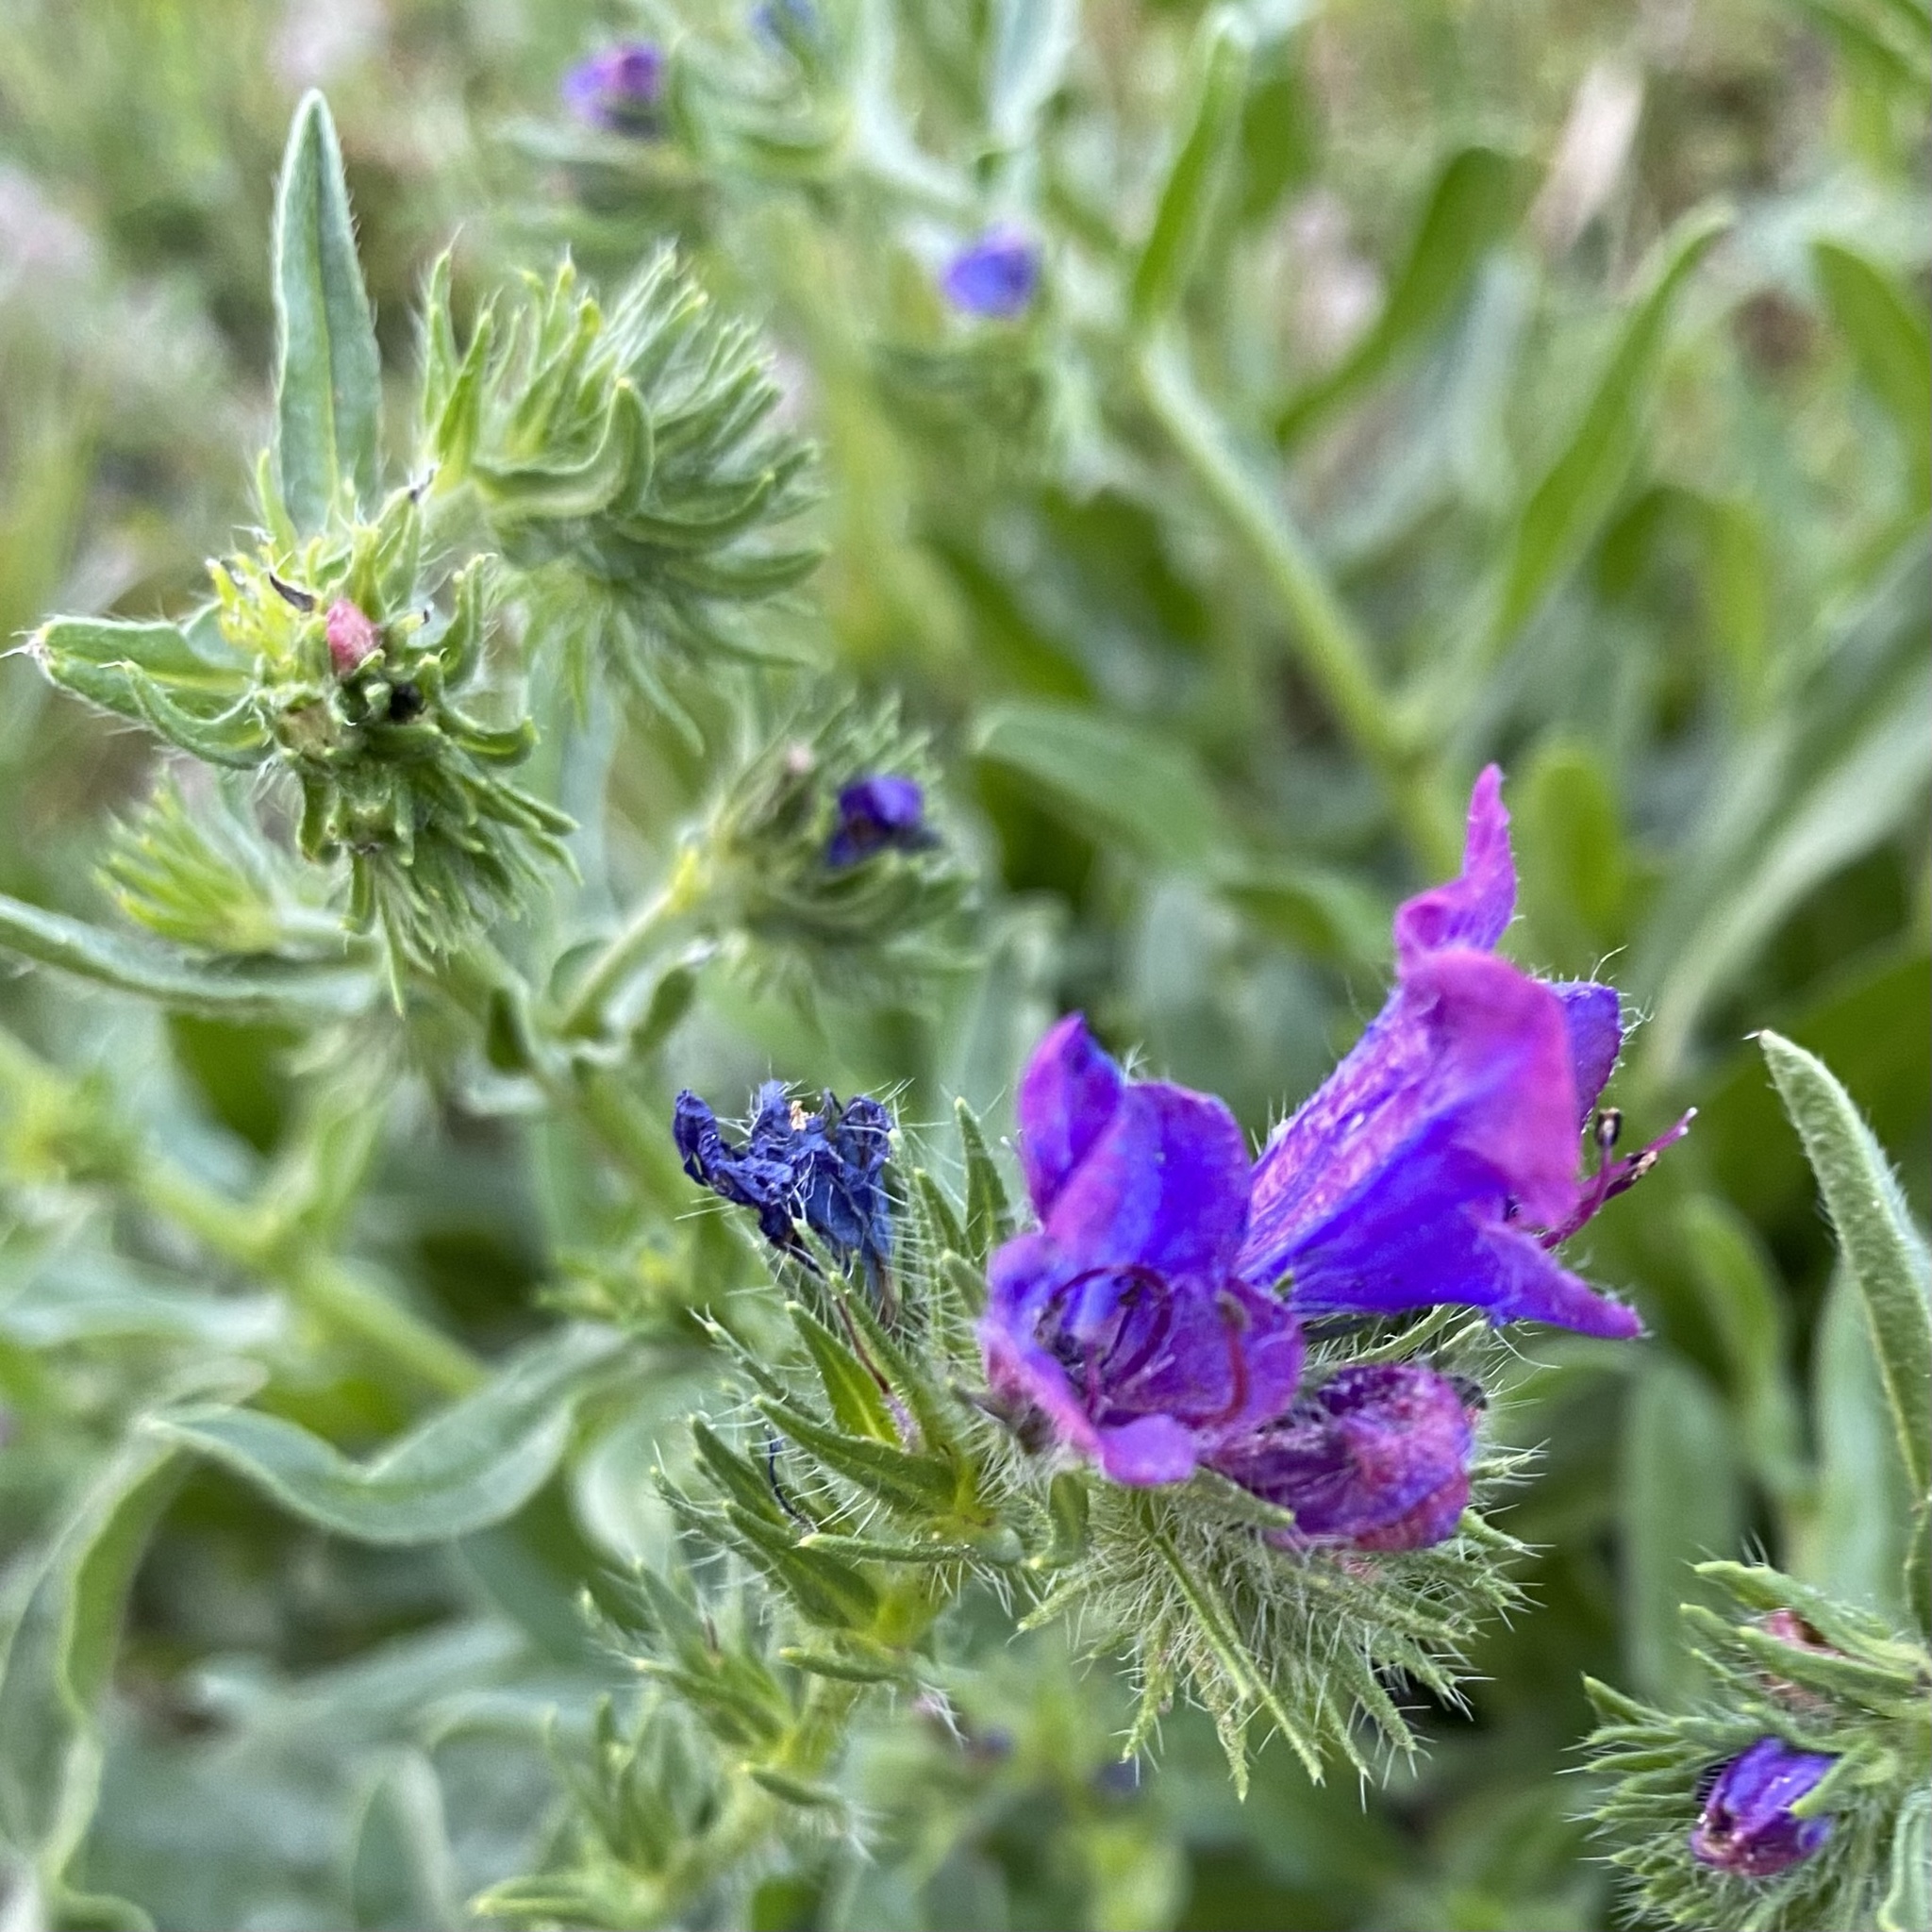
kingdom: Plantae
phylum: Tracheophyta
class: Magnoliopsida
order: Boraginales
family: Boraginaceae
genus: Echium
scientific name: Echium plantagineum
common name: Purple viper's-bugloss
